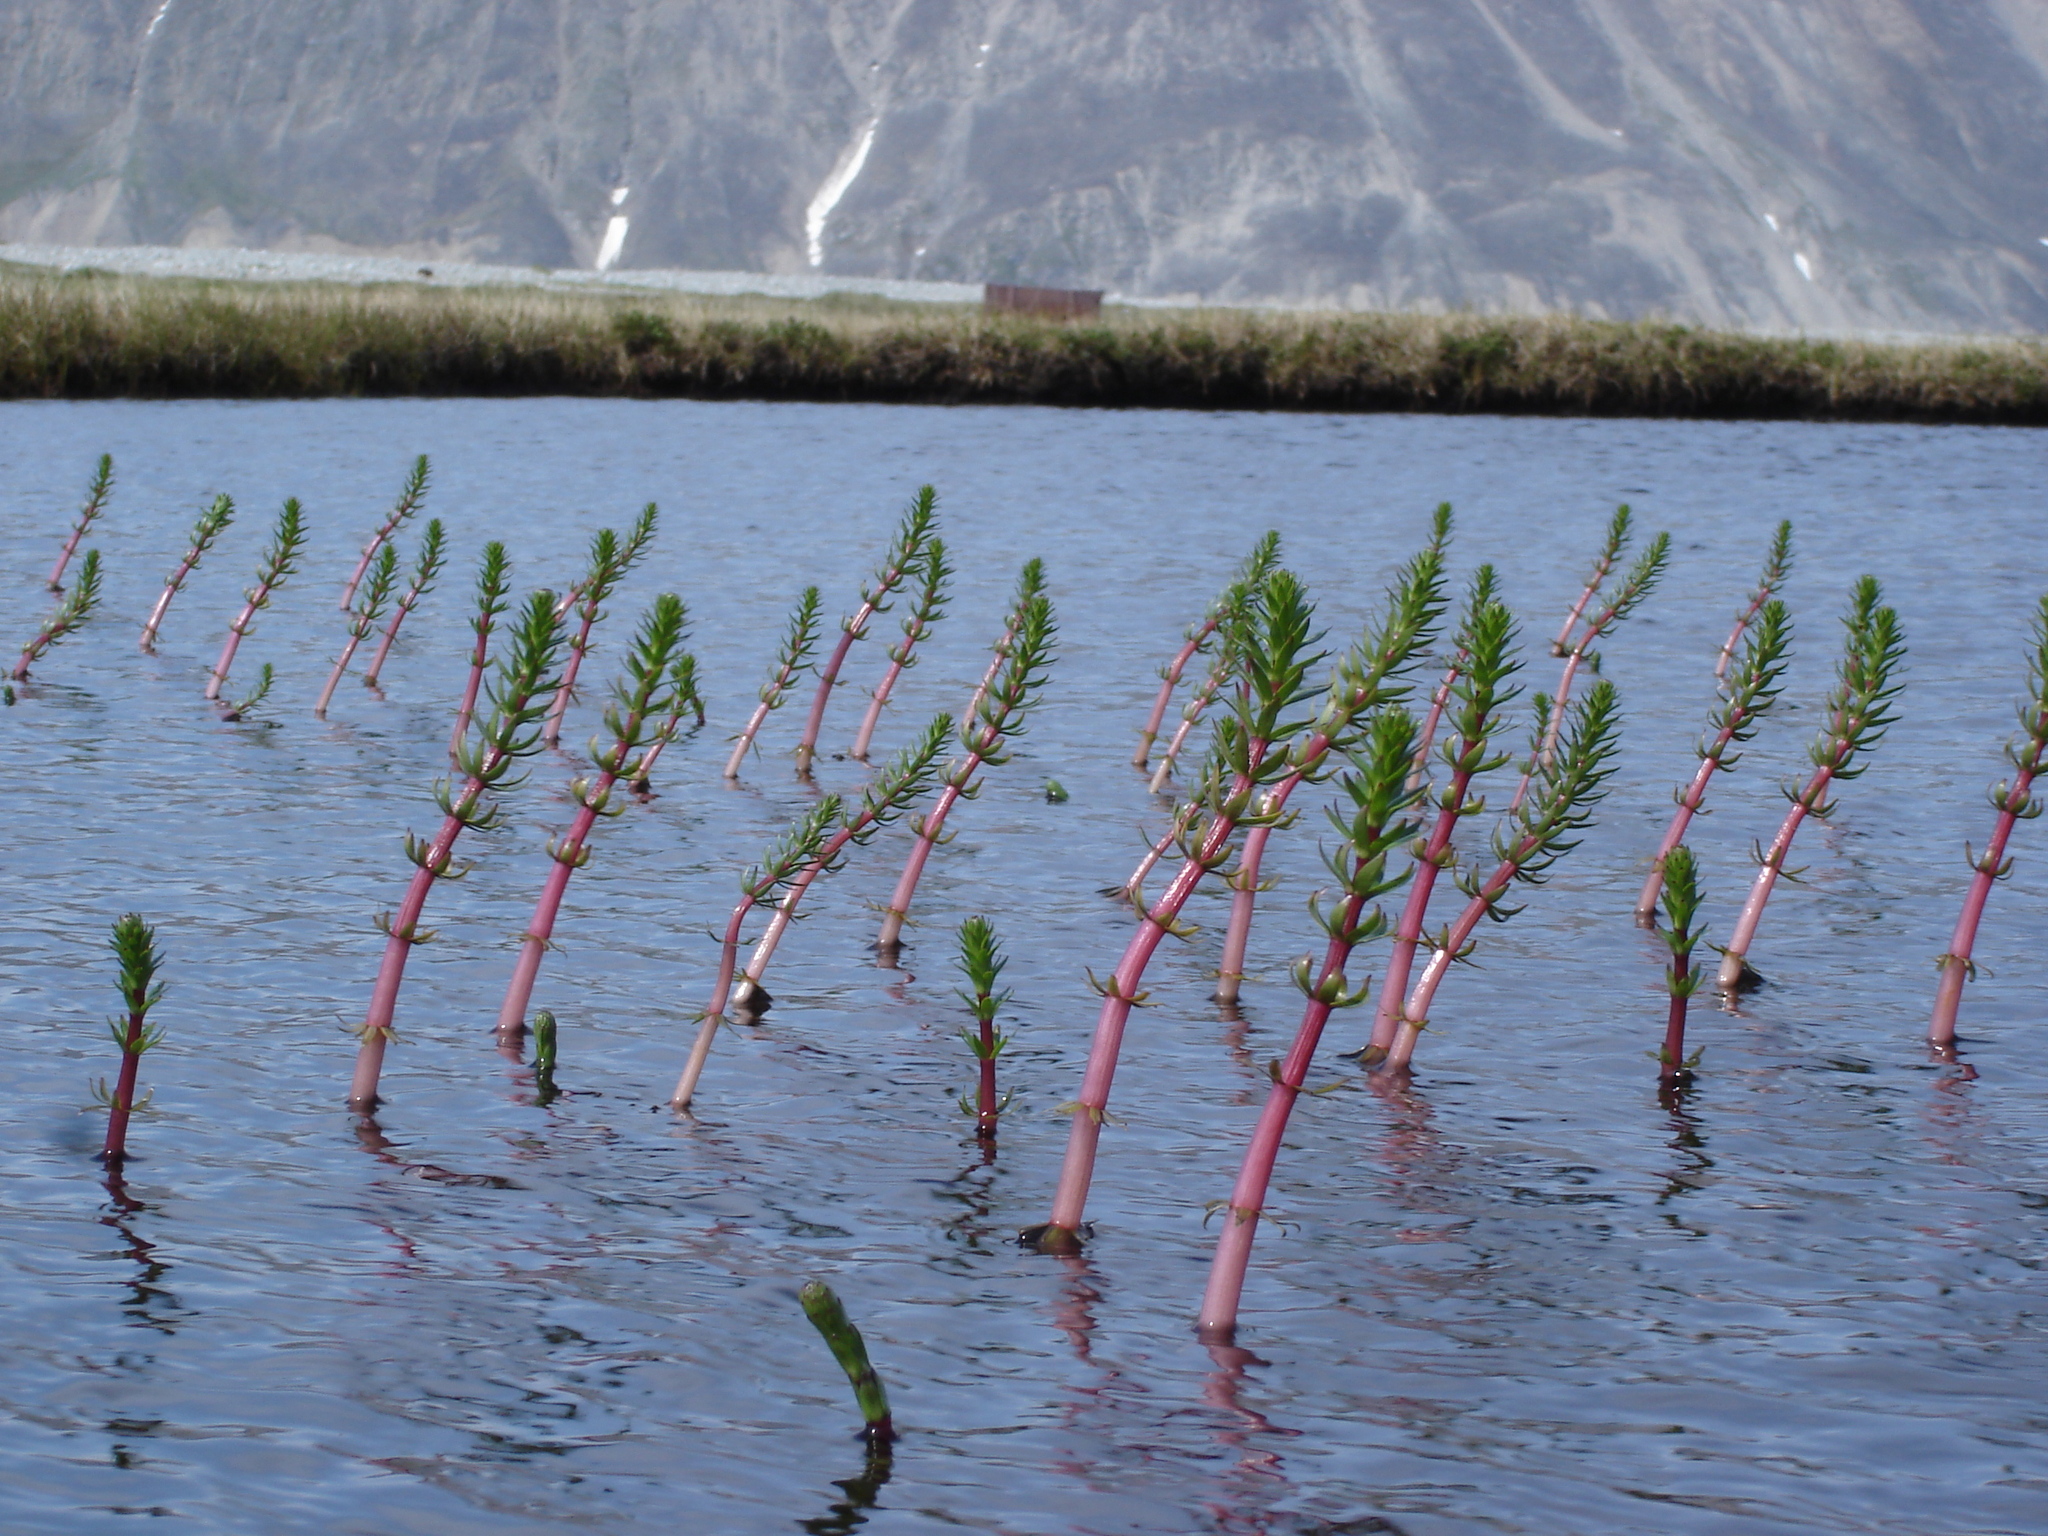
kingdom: Plantae
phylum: Tracheophyta
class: Magnoliopsida
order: Lamiales
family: Plantaginaceae
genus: Hippuris
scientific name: Hippuris vulgaris
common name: Mare's-tail
